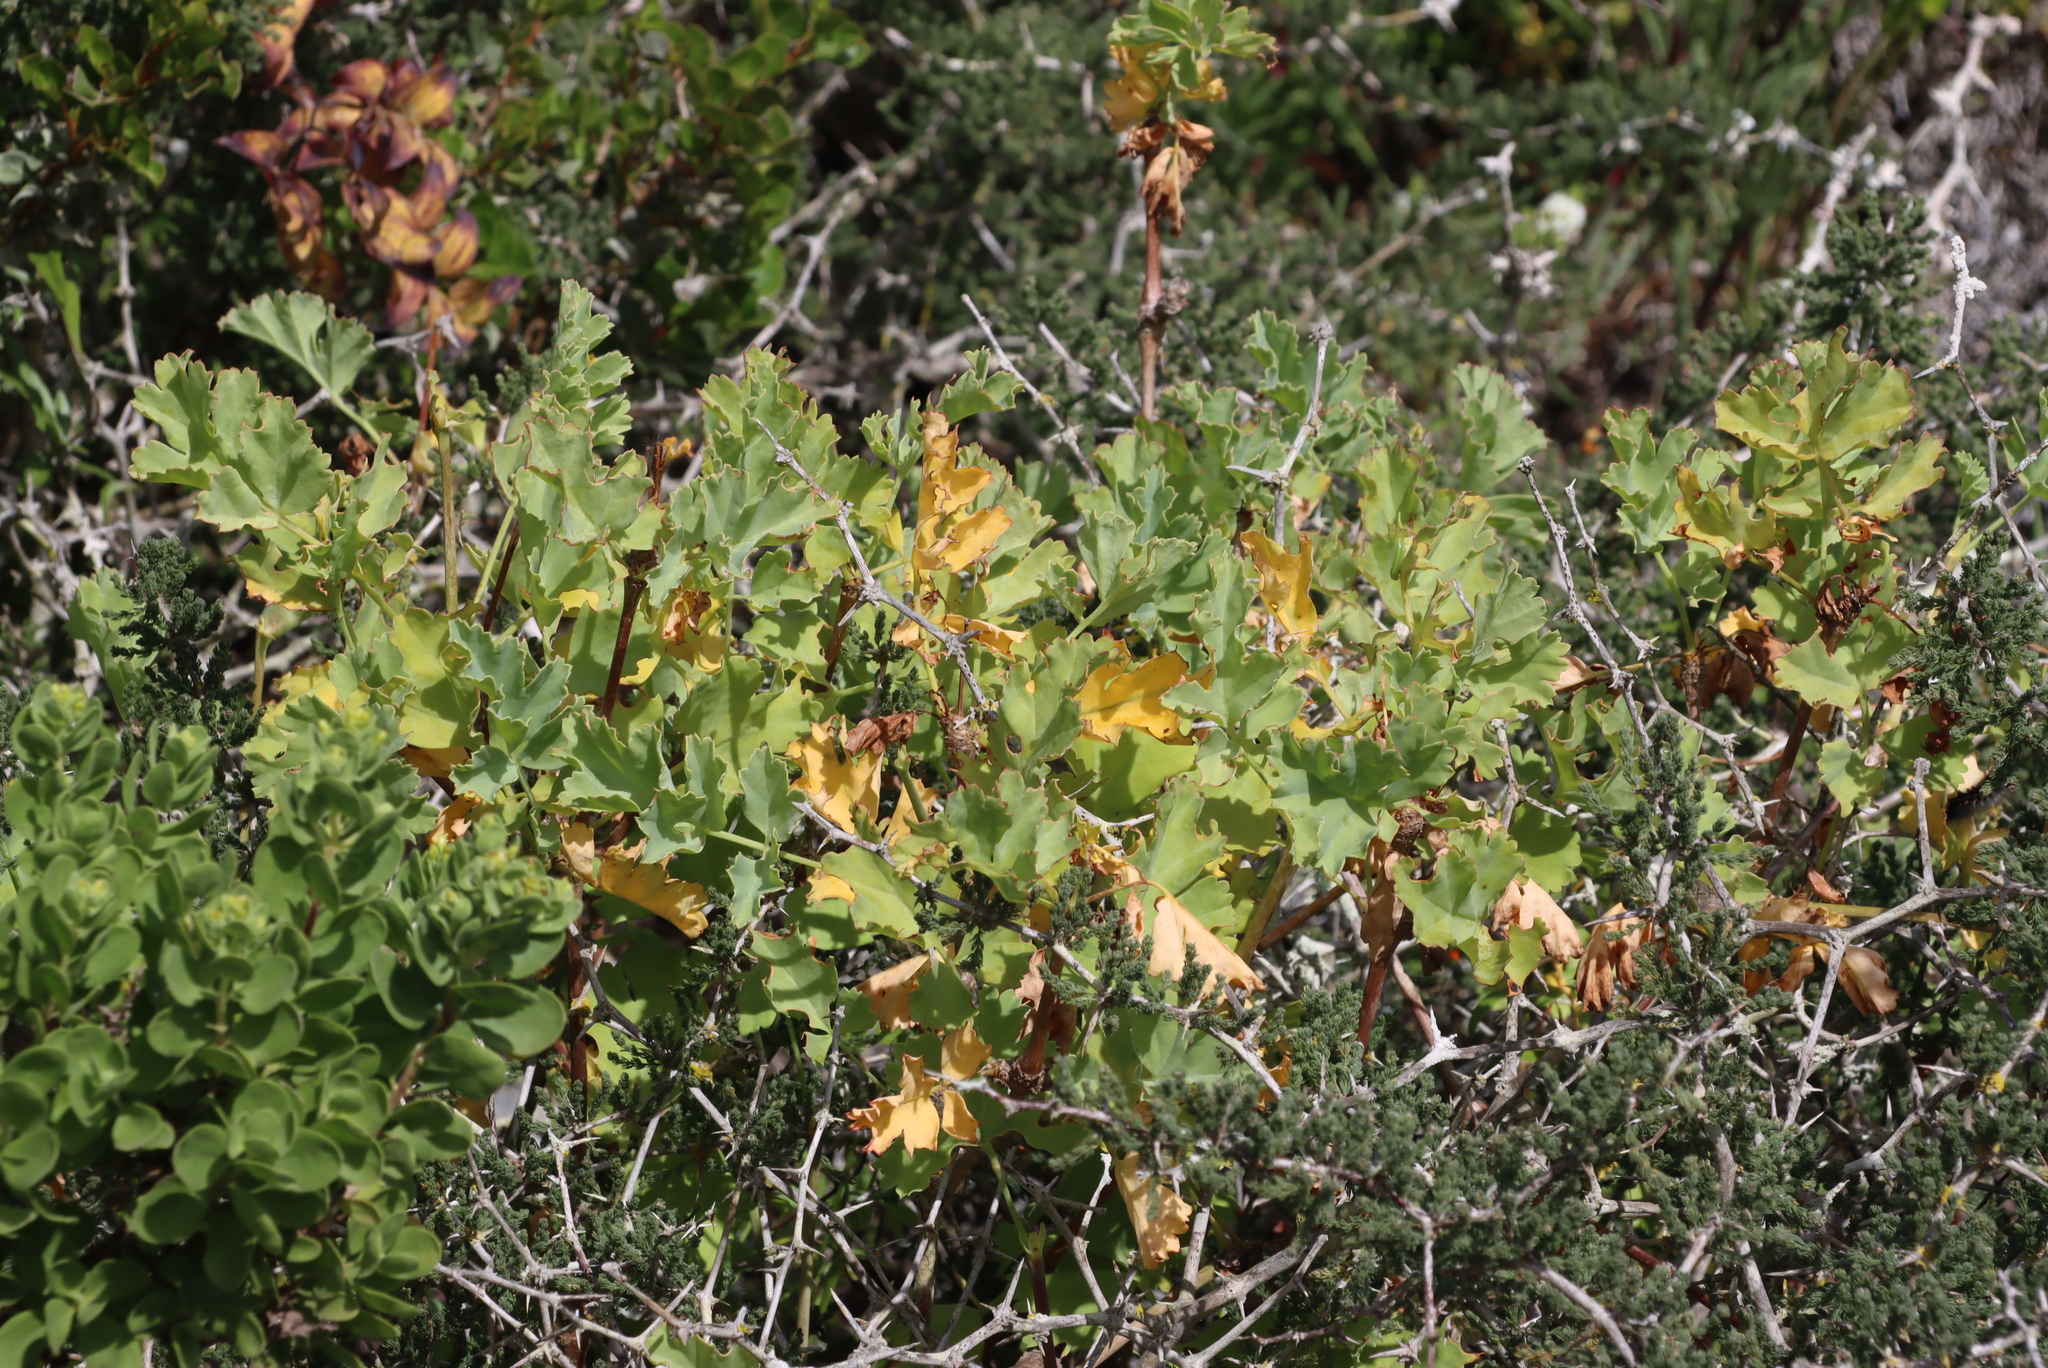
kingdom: Plantae
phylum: Tracheophyta
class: Magnoliopsida
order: Geraniales
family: Geraniaceae
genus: Pelargonium
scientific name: Pelargonium gibbosum
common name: Gouty geranium
